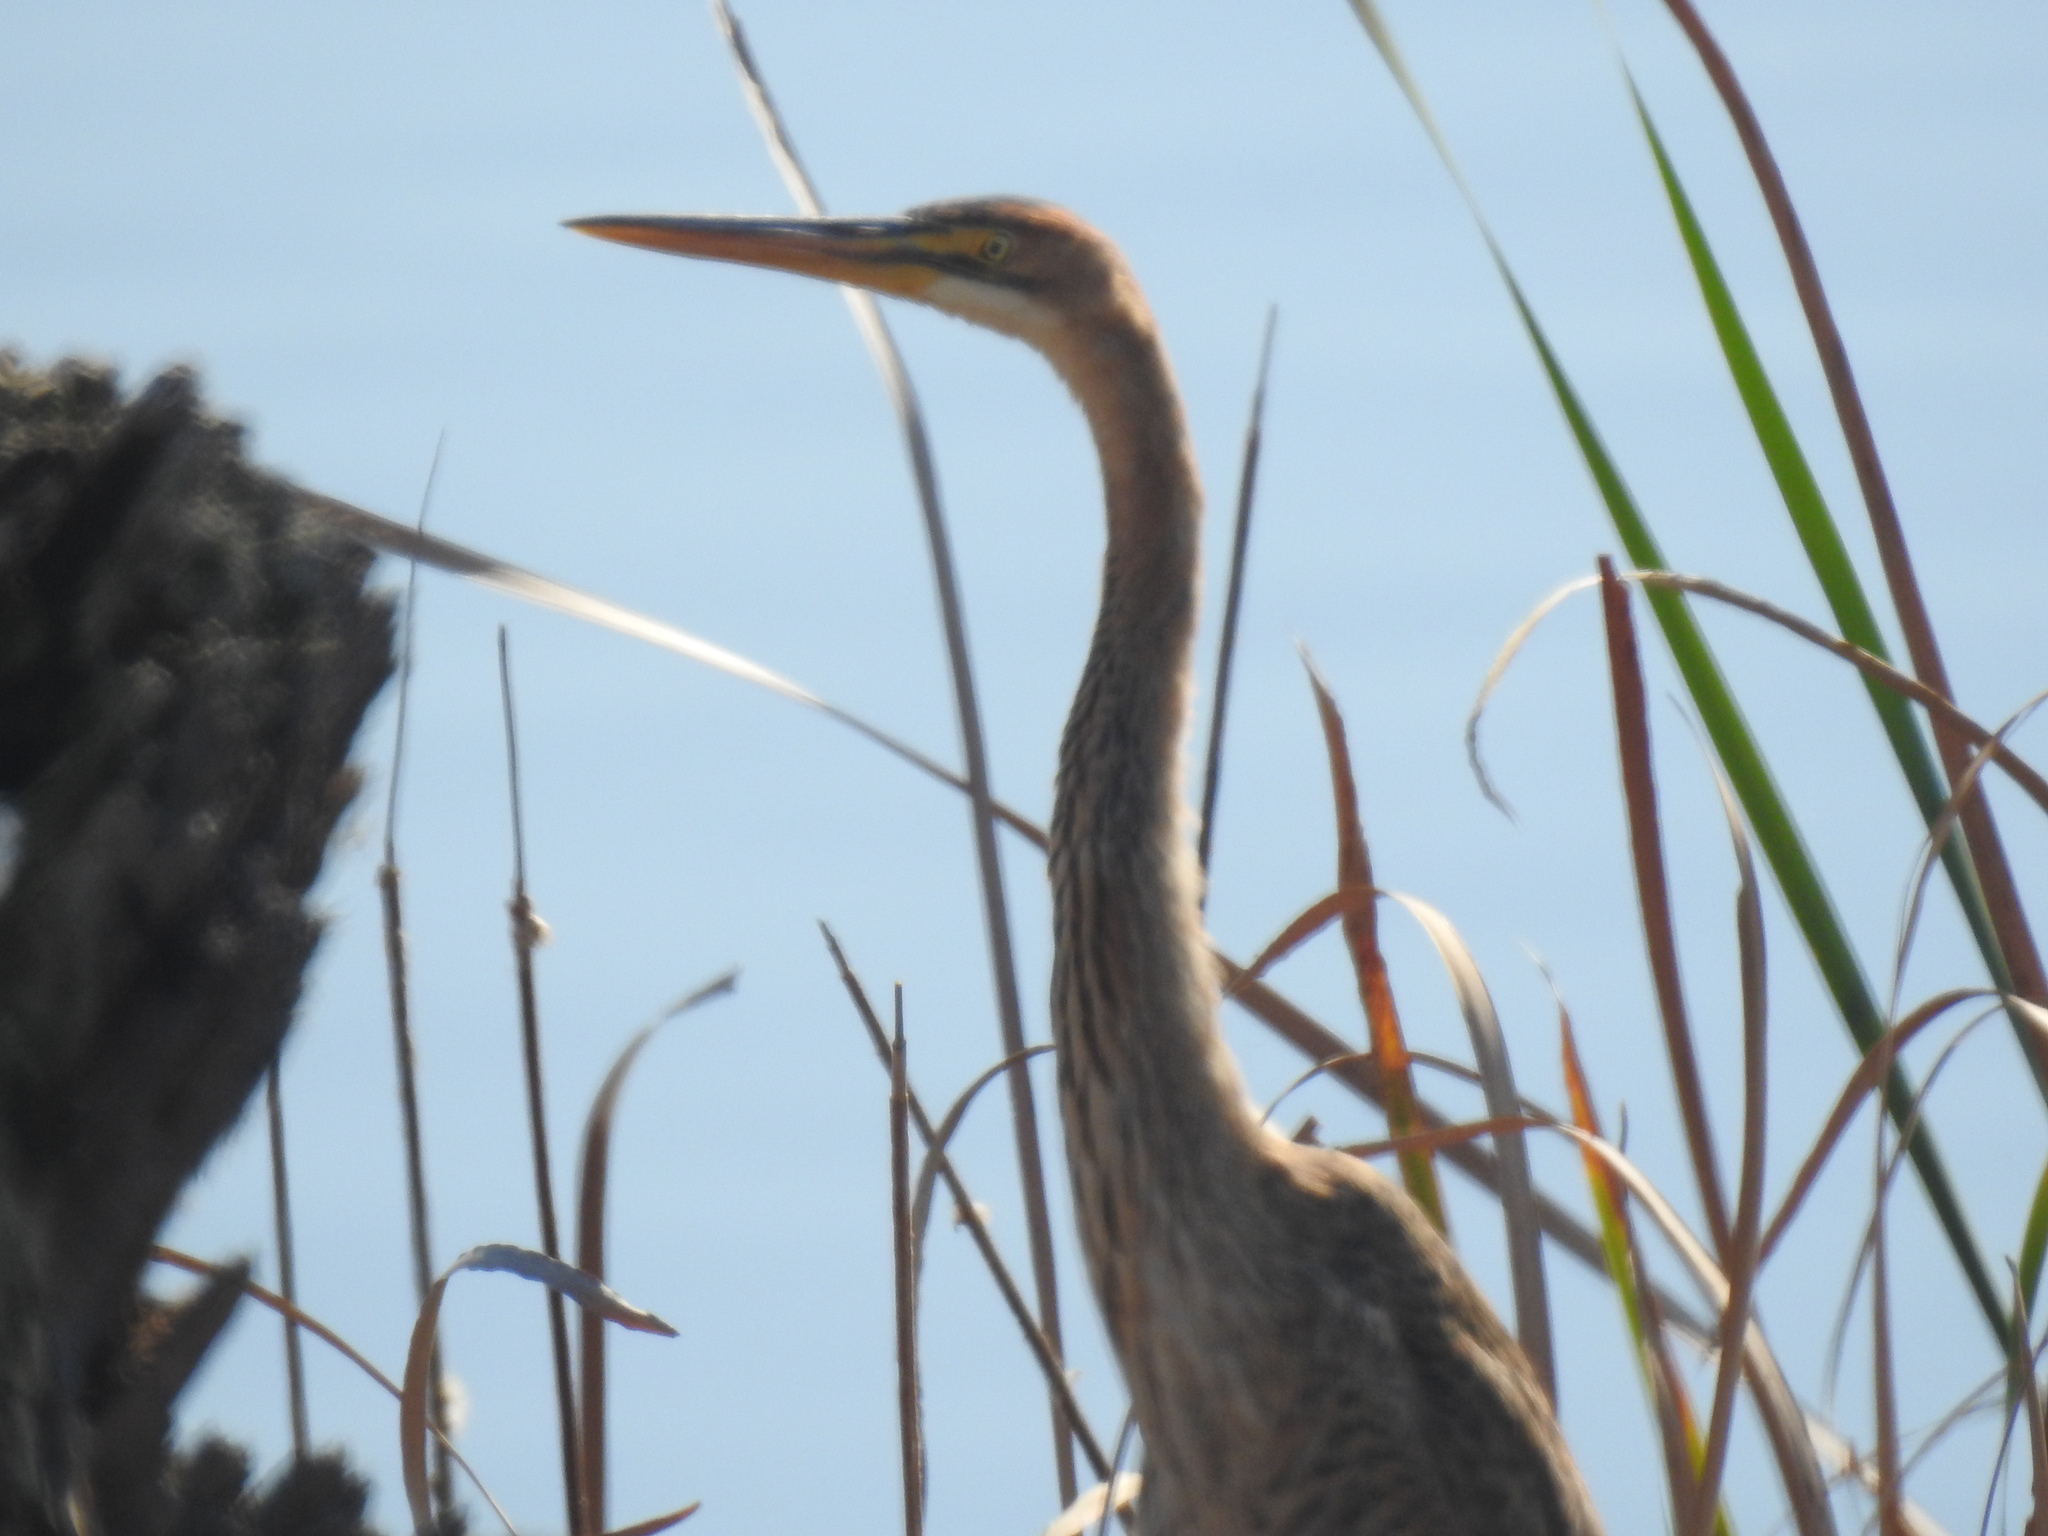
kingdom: Animalia
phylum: Chordata
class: Aves
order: Pelecaniformes
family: Ardeidae
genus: Ardea
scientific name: Ardea purpurea
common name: Purple heron
